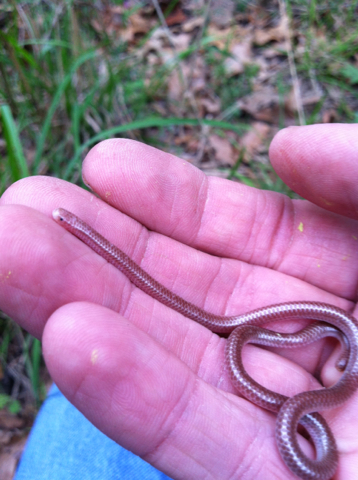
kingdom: Animalia
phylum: Chordata
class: Squamata
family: Leptotyphlopidae
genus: Rena
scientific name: Rena dulcis
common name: Texas blind snake
